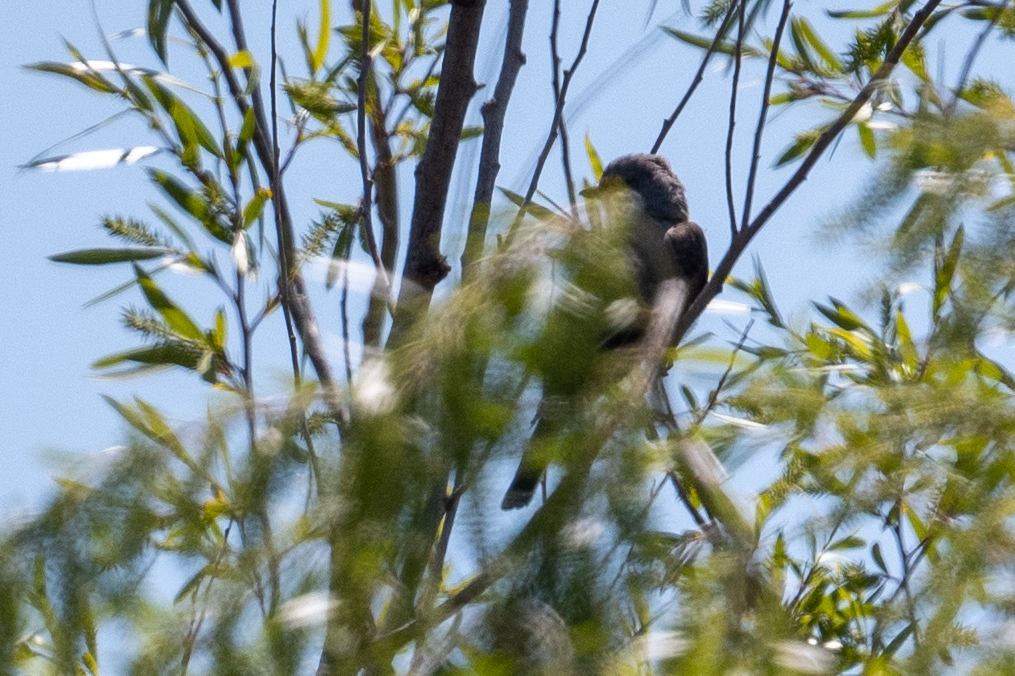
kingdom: Animalia
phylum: Chordata
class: Aves
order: Passeriformes
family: Tyrannidae
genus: Tyrannus
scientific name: Tyrannus verticalis
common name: Western kingbird
